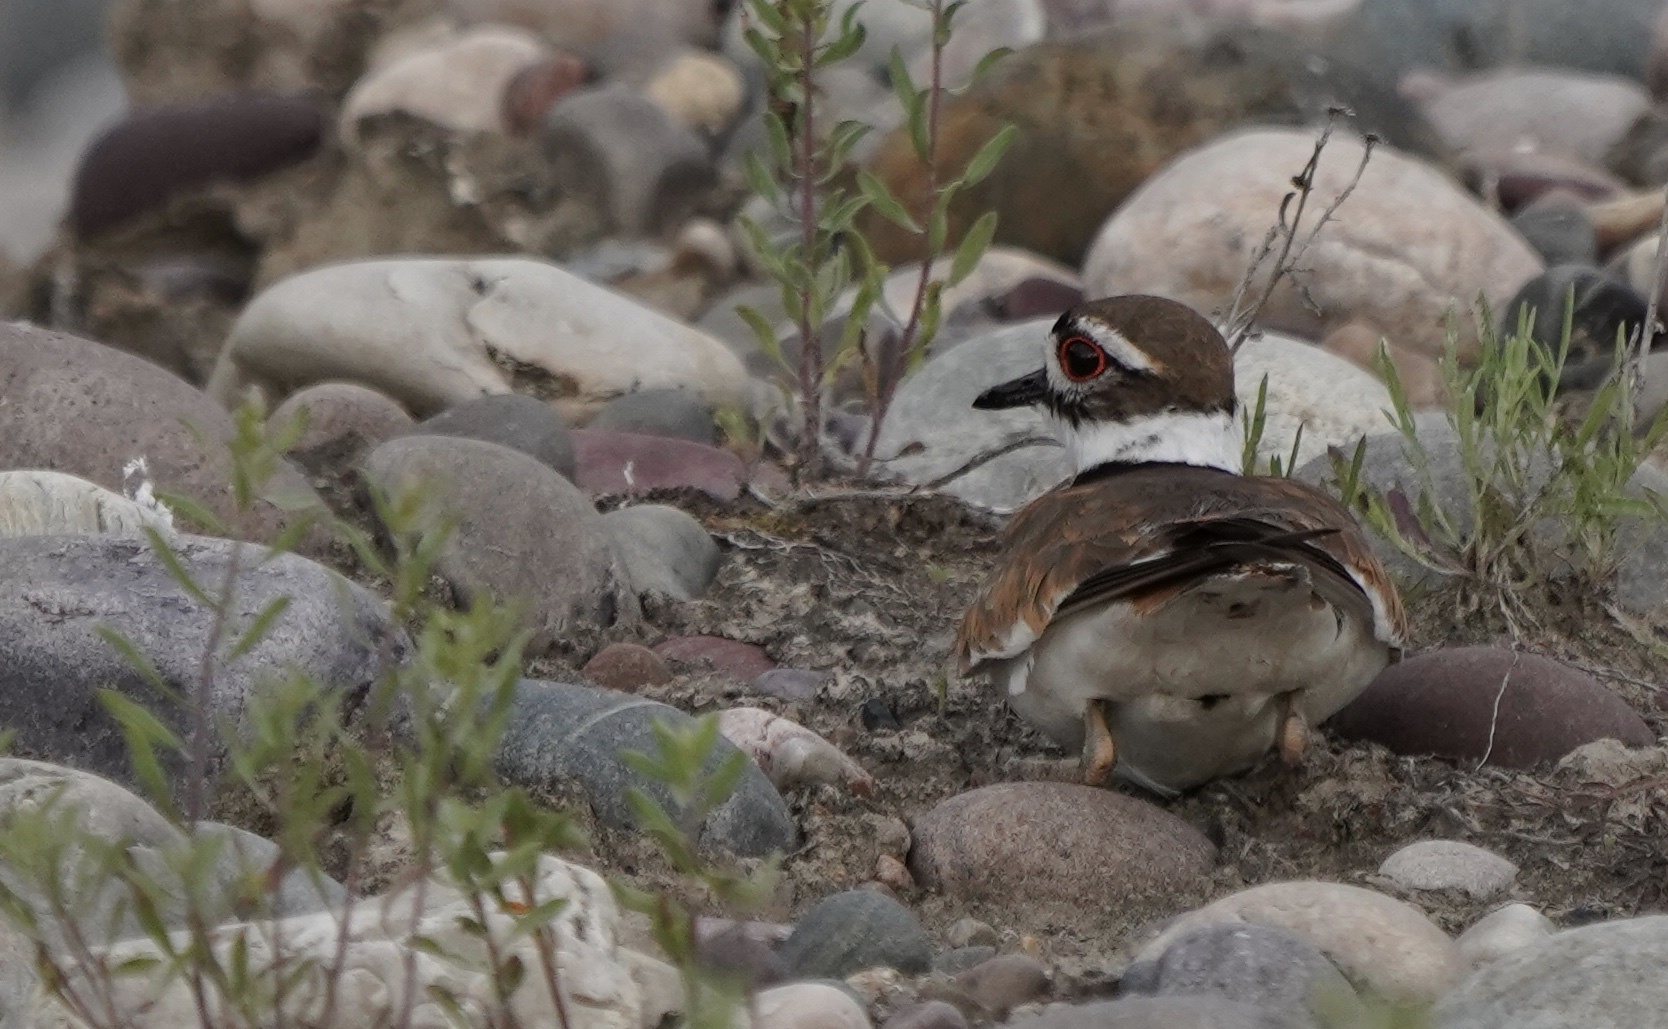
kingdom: Animalia
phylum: Chordata
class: Aves
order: Charadriiformes
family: Charadriidae
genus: Charadrius
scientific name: Charadrius vociferus
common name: Killdeer
